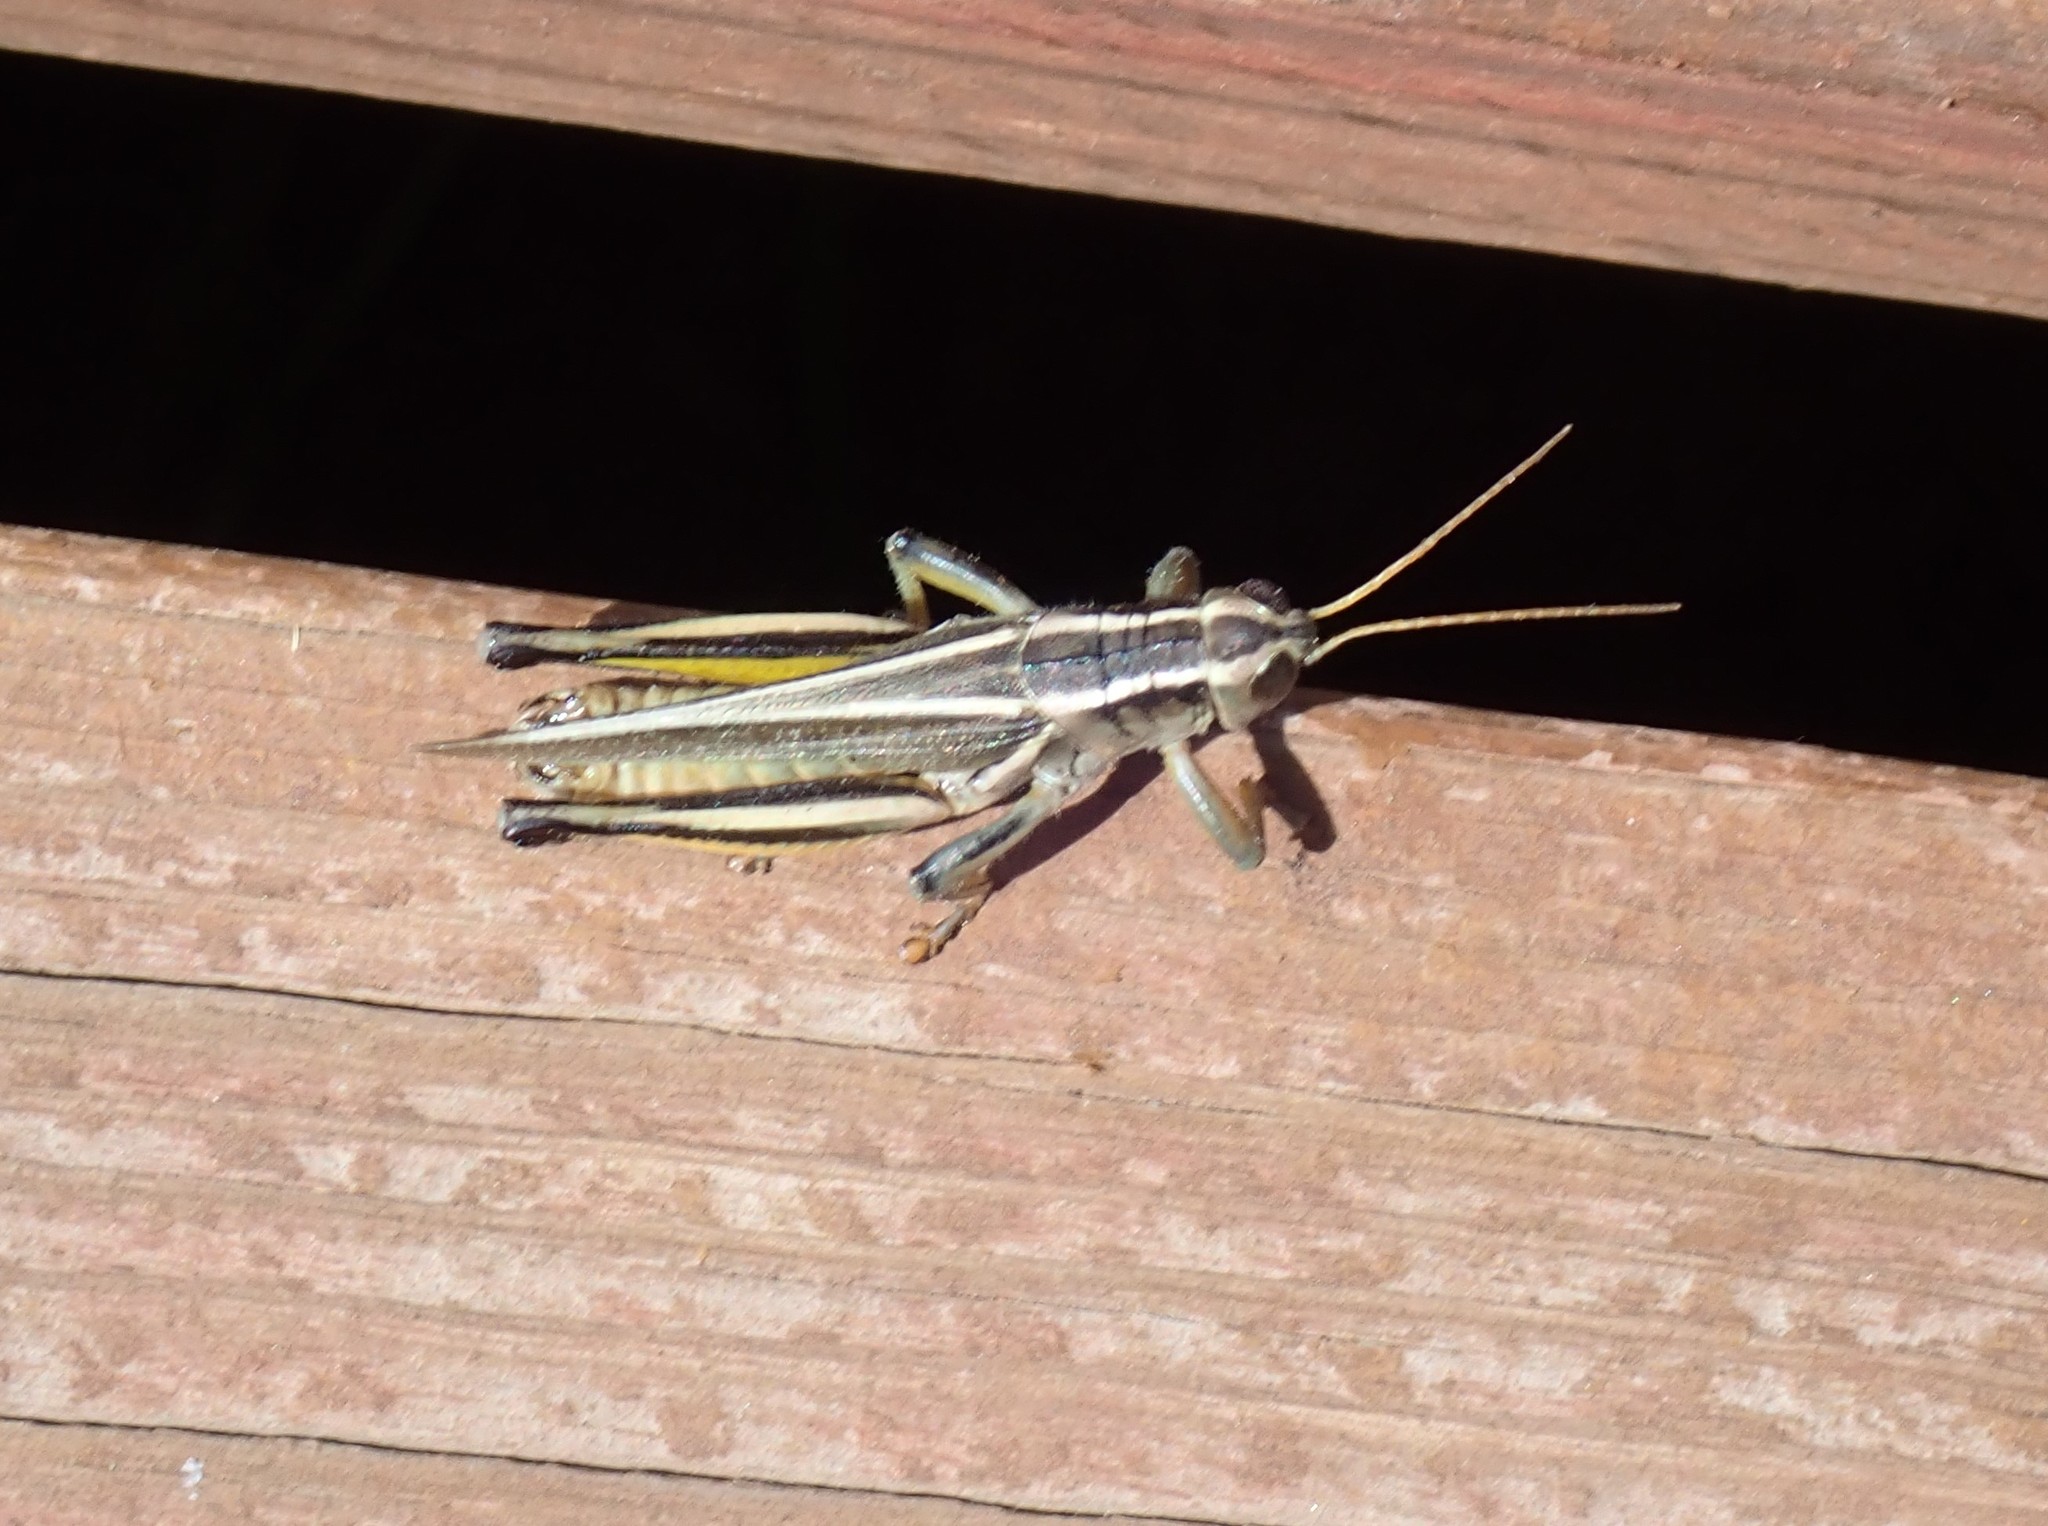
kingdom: Animalia
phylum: Arthropoda
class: Insecta
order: Orthoptera
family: Acrididae
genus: Melanoplus
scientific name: Melanoplus bivittatus
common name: Two-striped grasshopper
